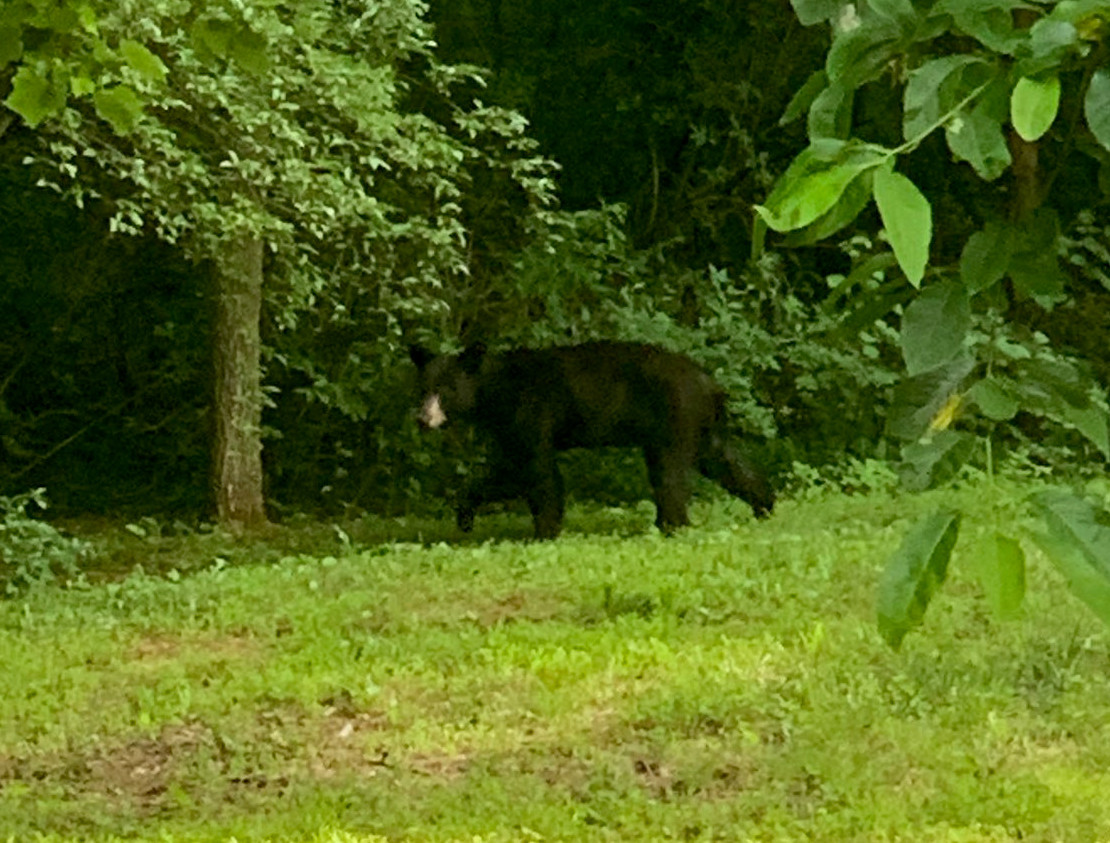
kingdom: Animalia
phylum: Chordata
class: Mammalia
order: Carnivora
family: Ursidae
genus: Ursus
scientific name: Ursus americanus
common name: American black bear
